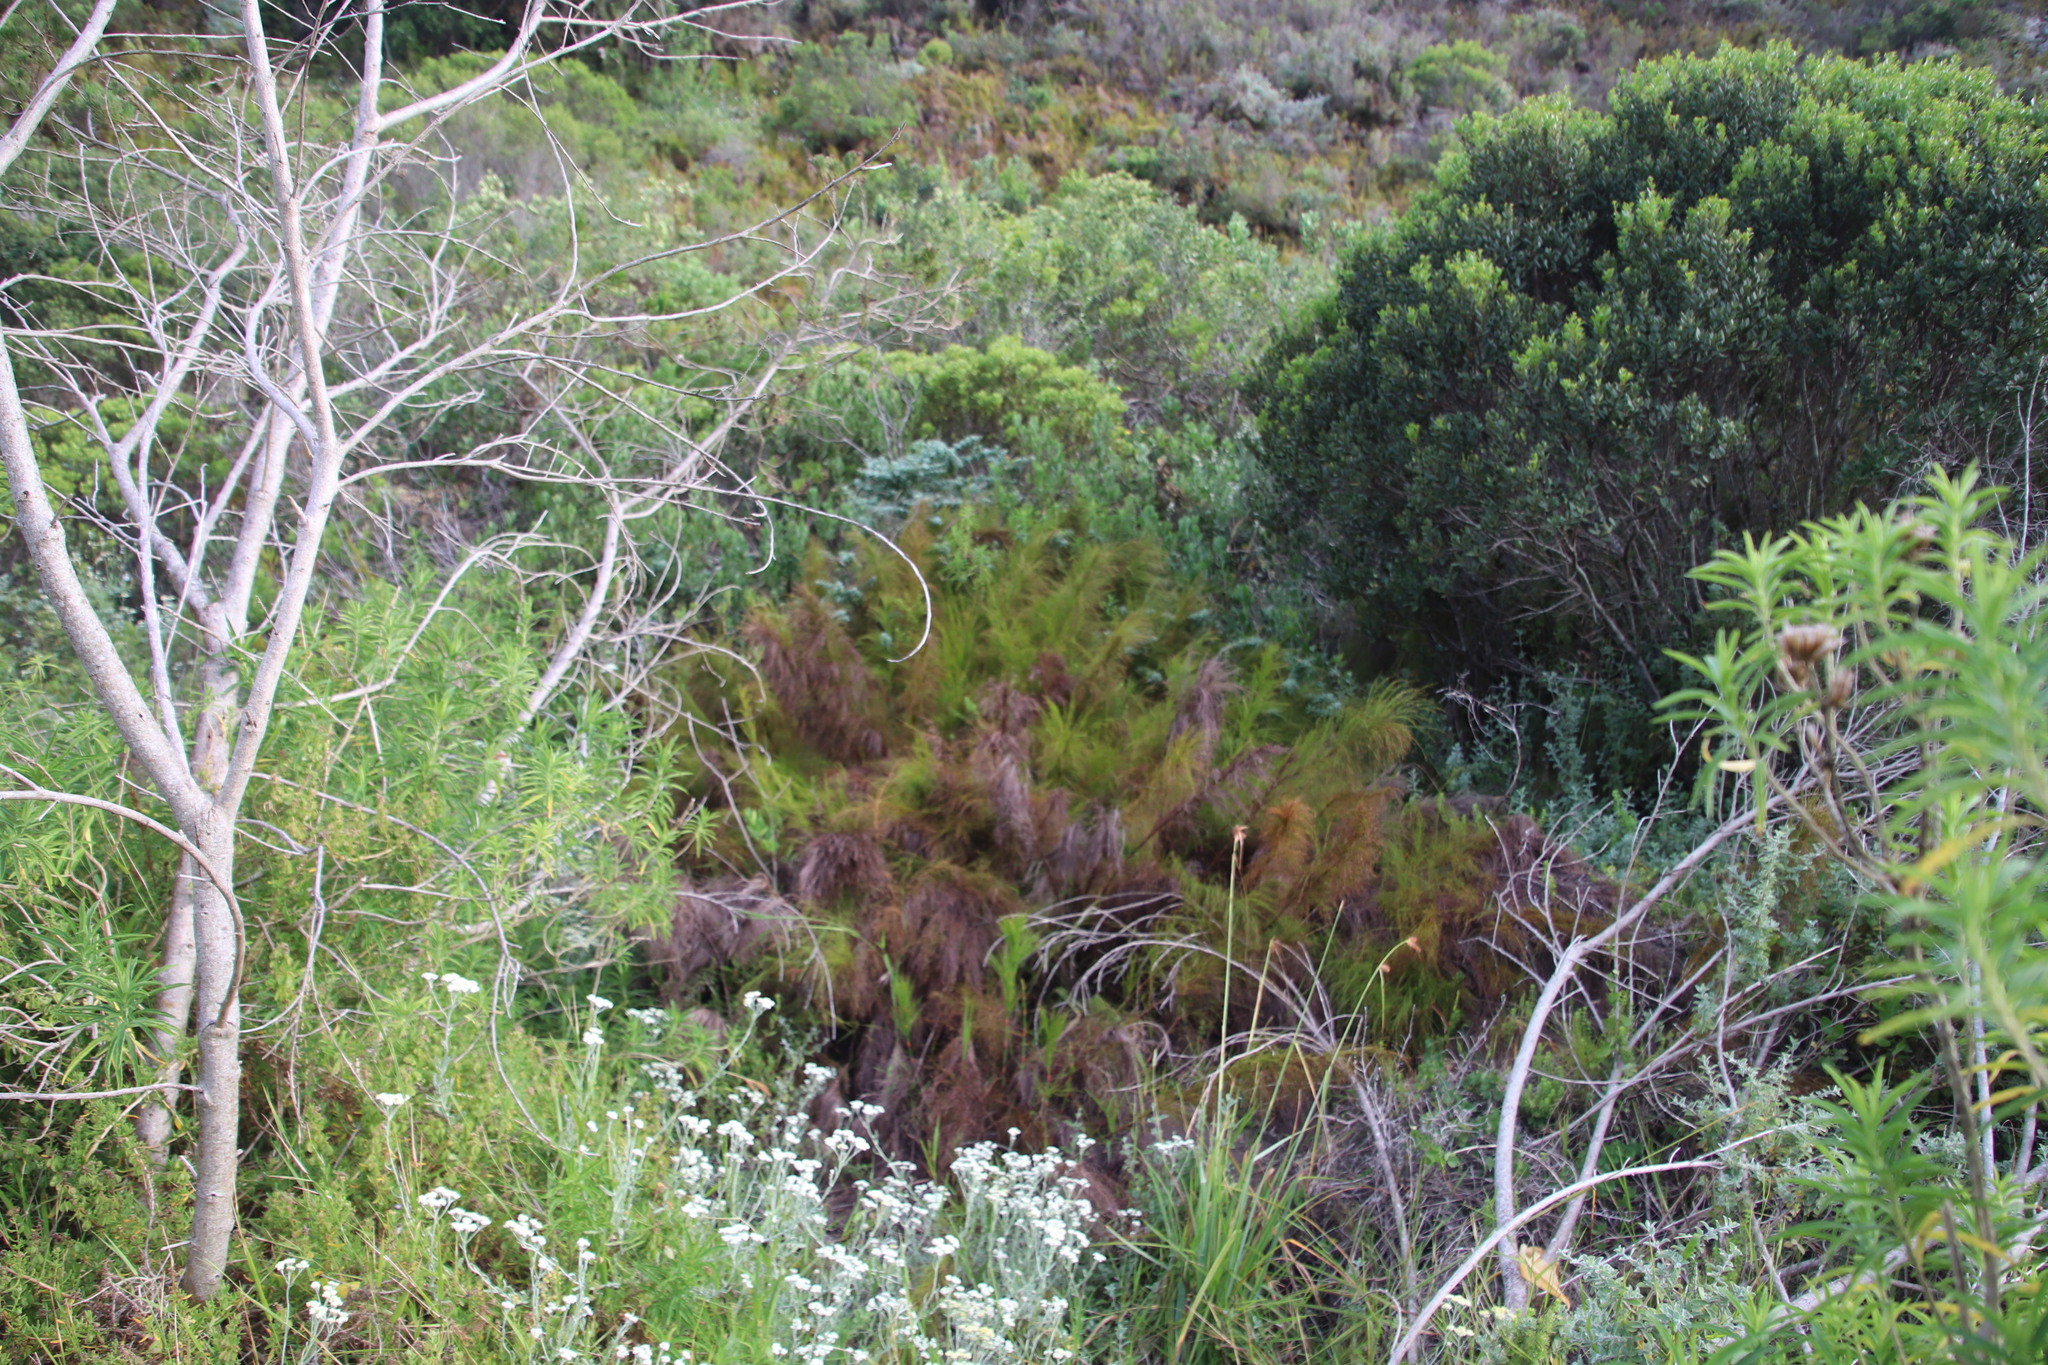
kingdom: Plantae
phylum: Tracheophyta
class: Liliopsida
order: Poales
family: Restionaceae
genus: Restio
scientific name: Restio leptoclados
